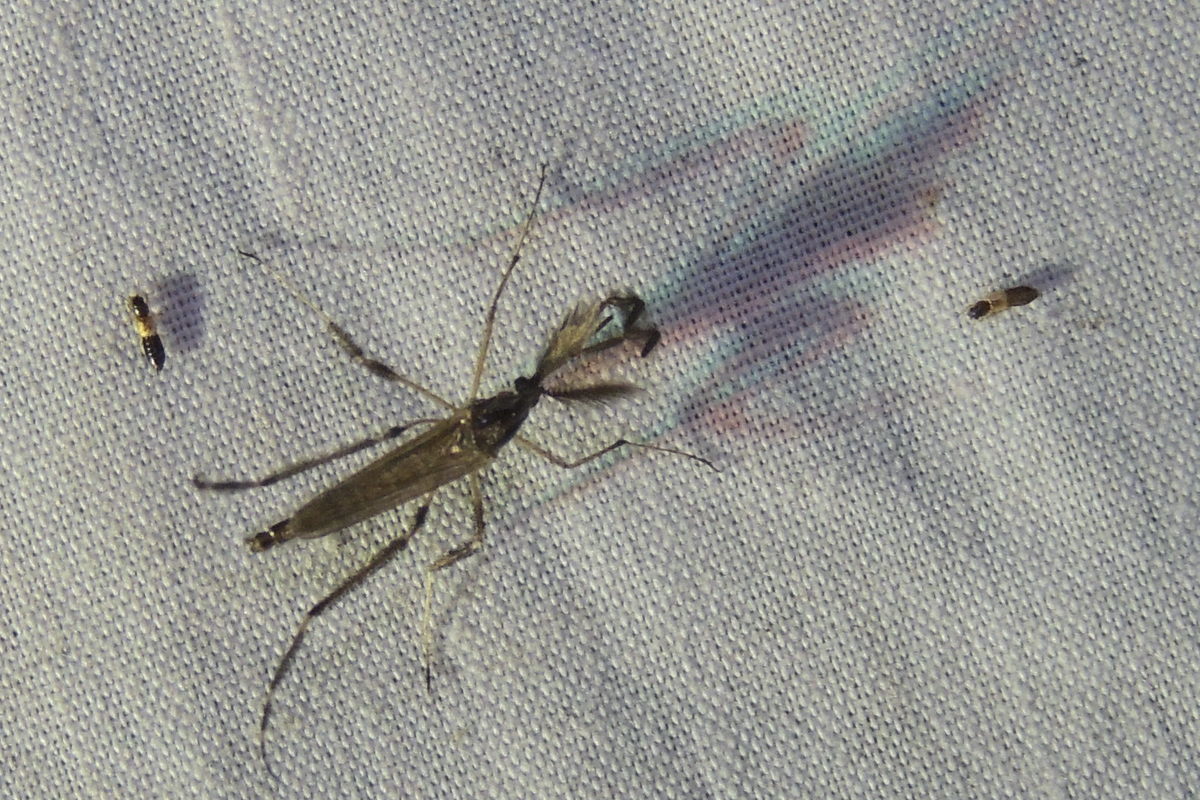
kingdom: Animalia
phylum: Arthropoda
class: Insecta
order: Diptera
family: Culicidae
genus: Psorophora
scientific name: Psorophora ciliata
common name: Gallinipper
